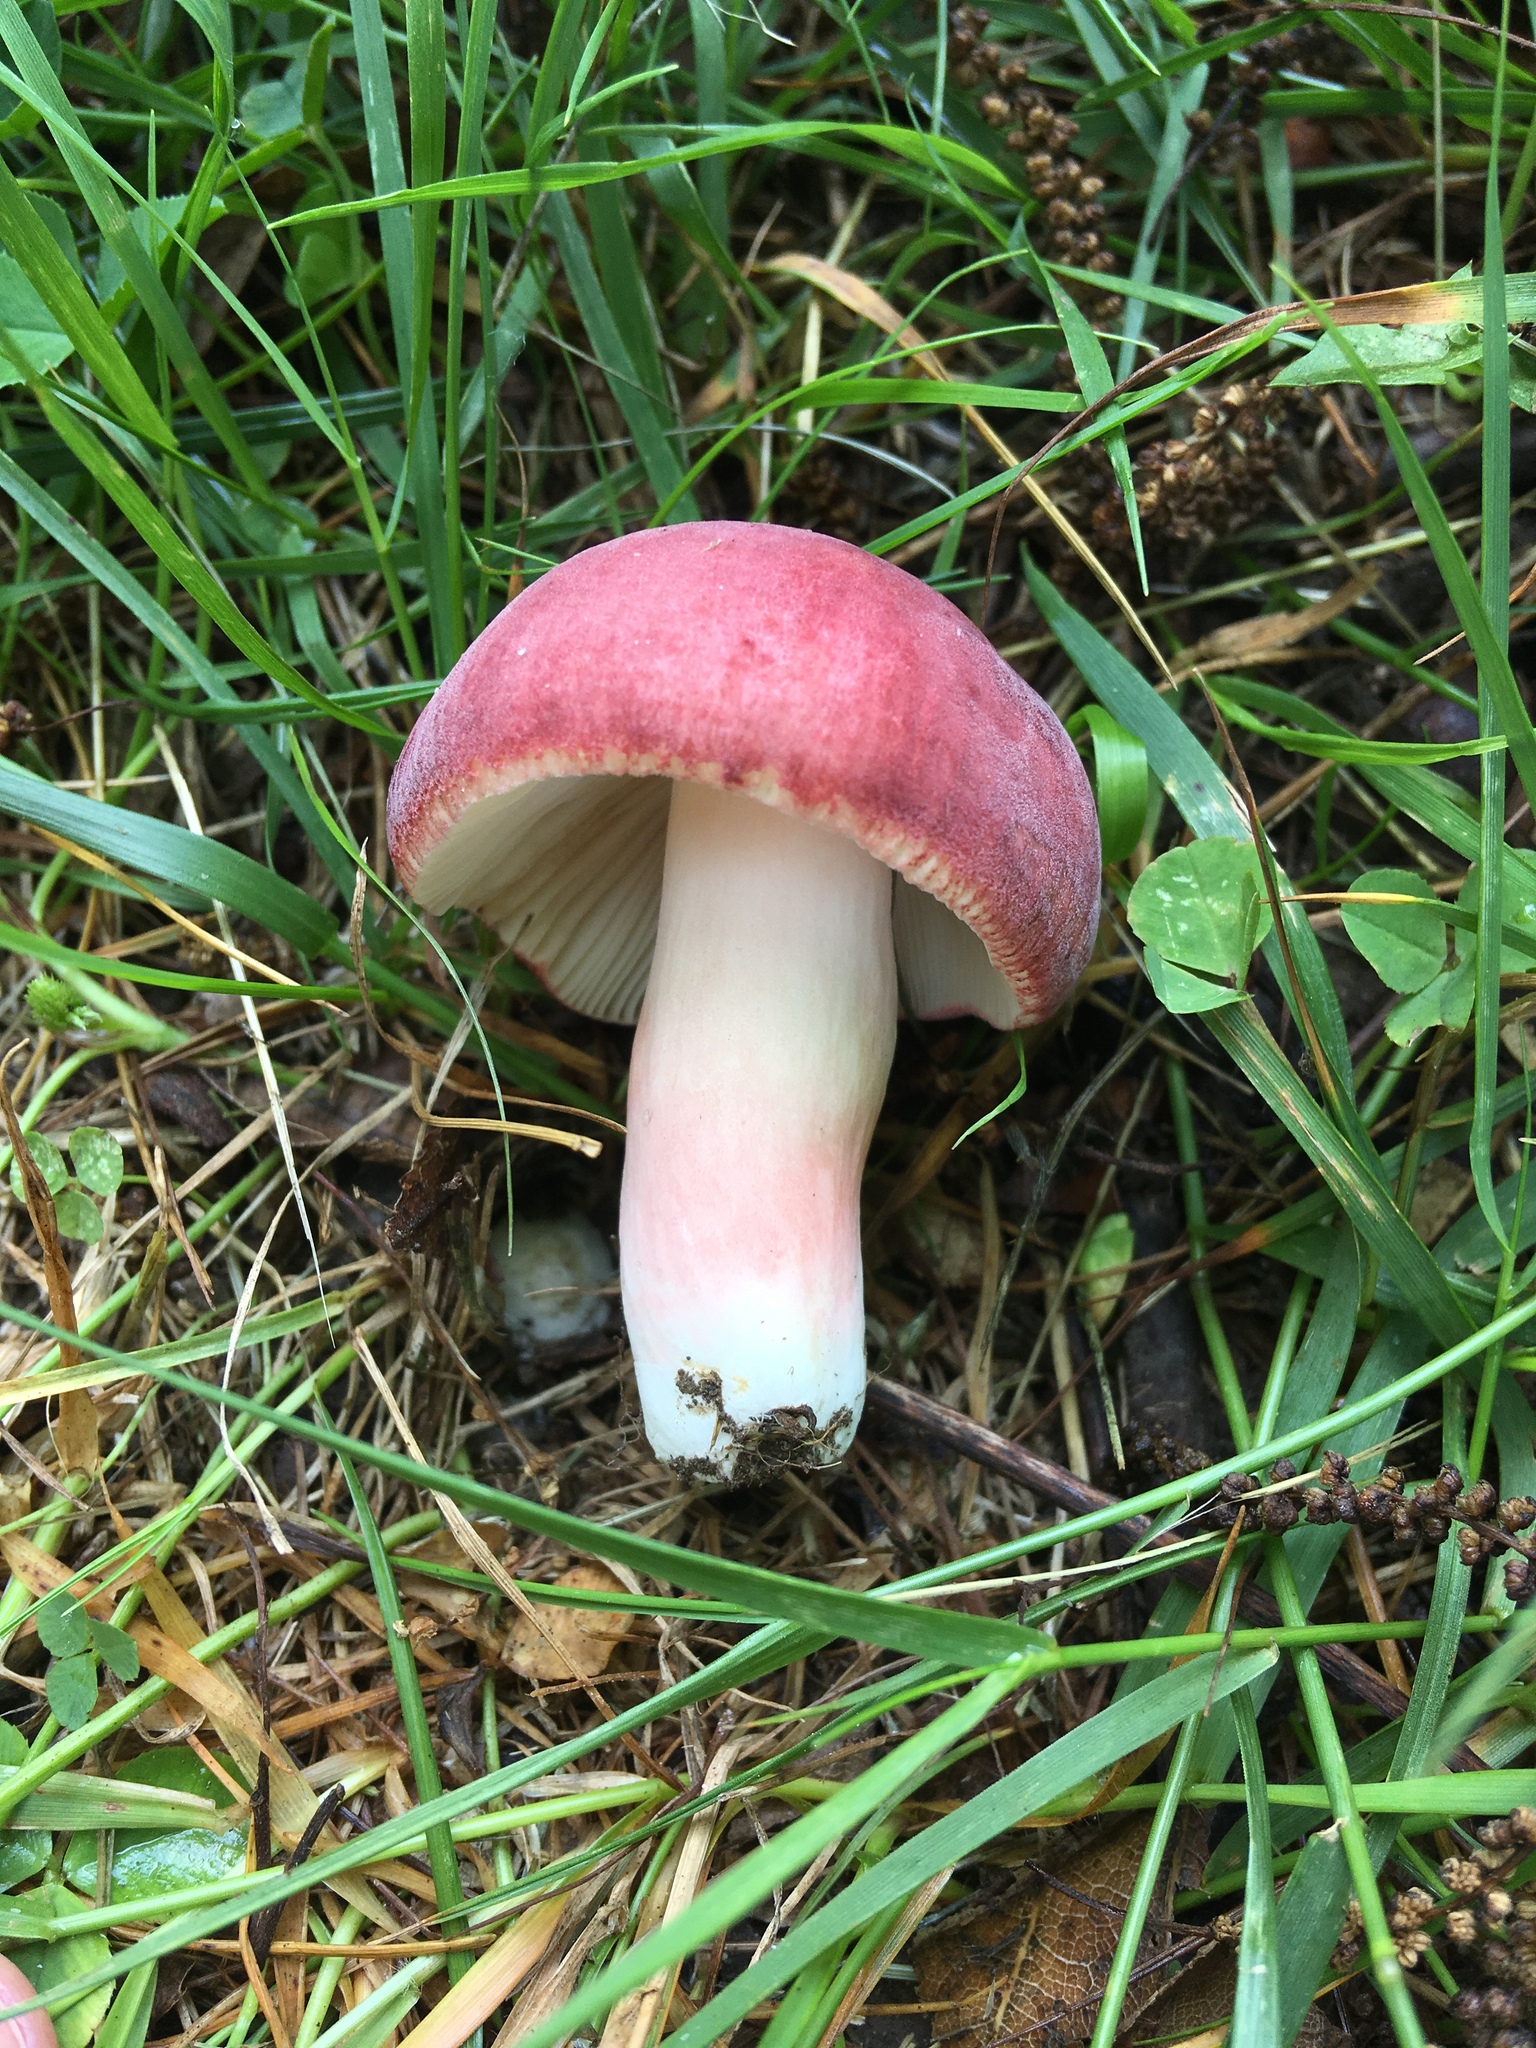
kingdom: Fungi
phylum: Basidiomycota
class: Agaricomycetes
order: Russulales
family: Russulaceae
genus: Russula
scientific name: Russula mariae
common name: Purple-bloom russula
